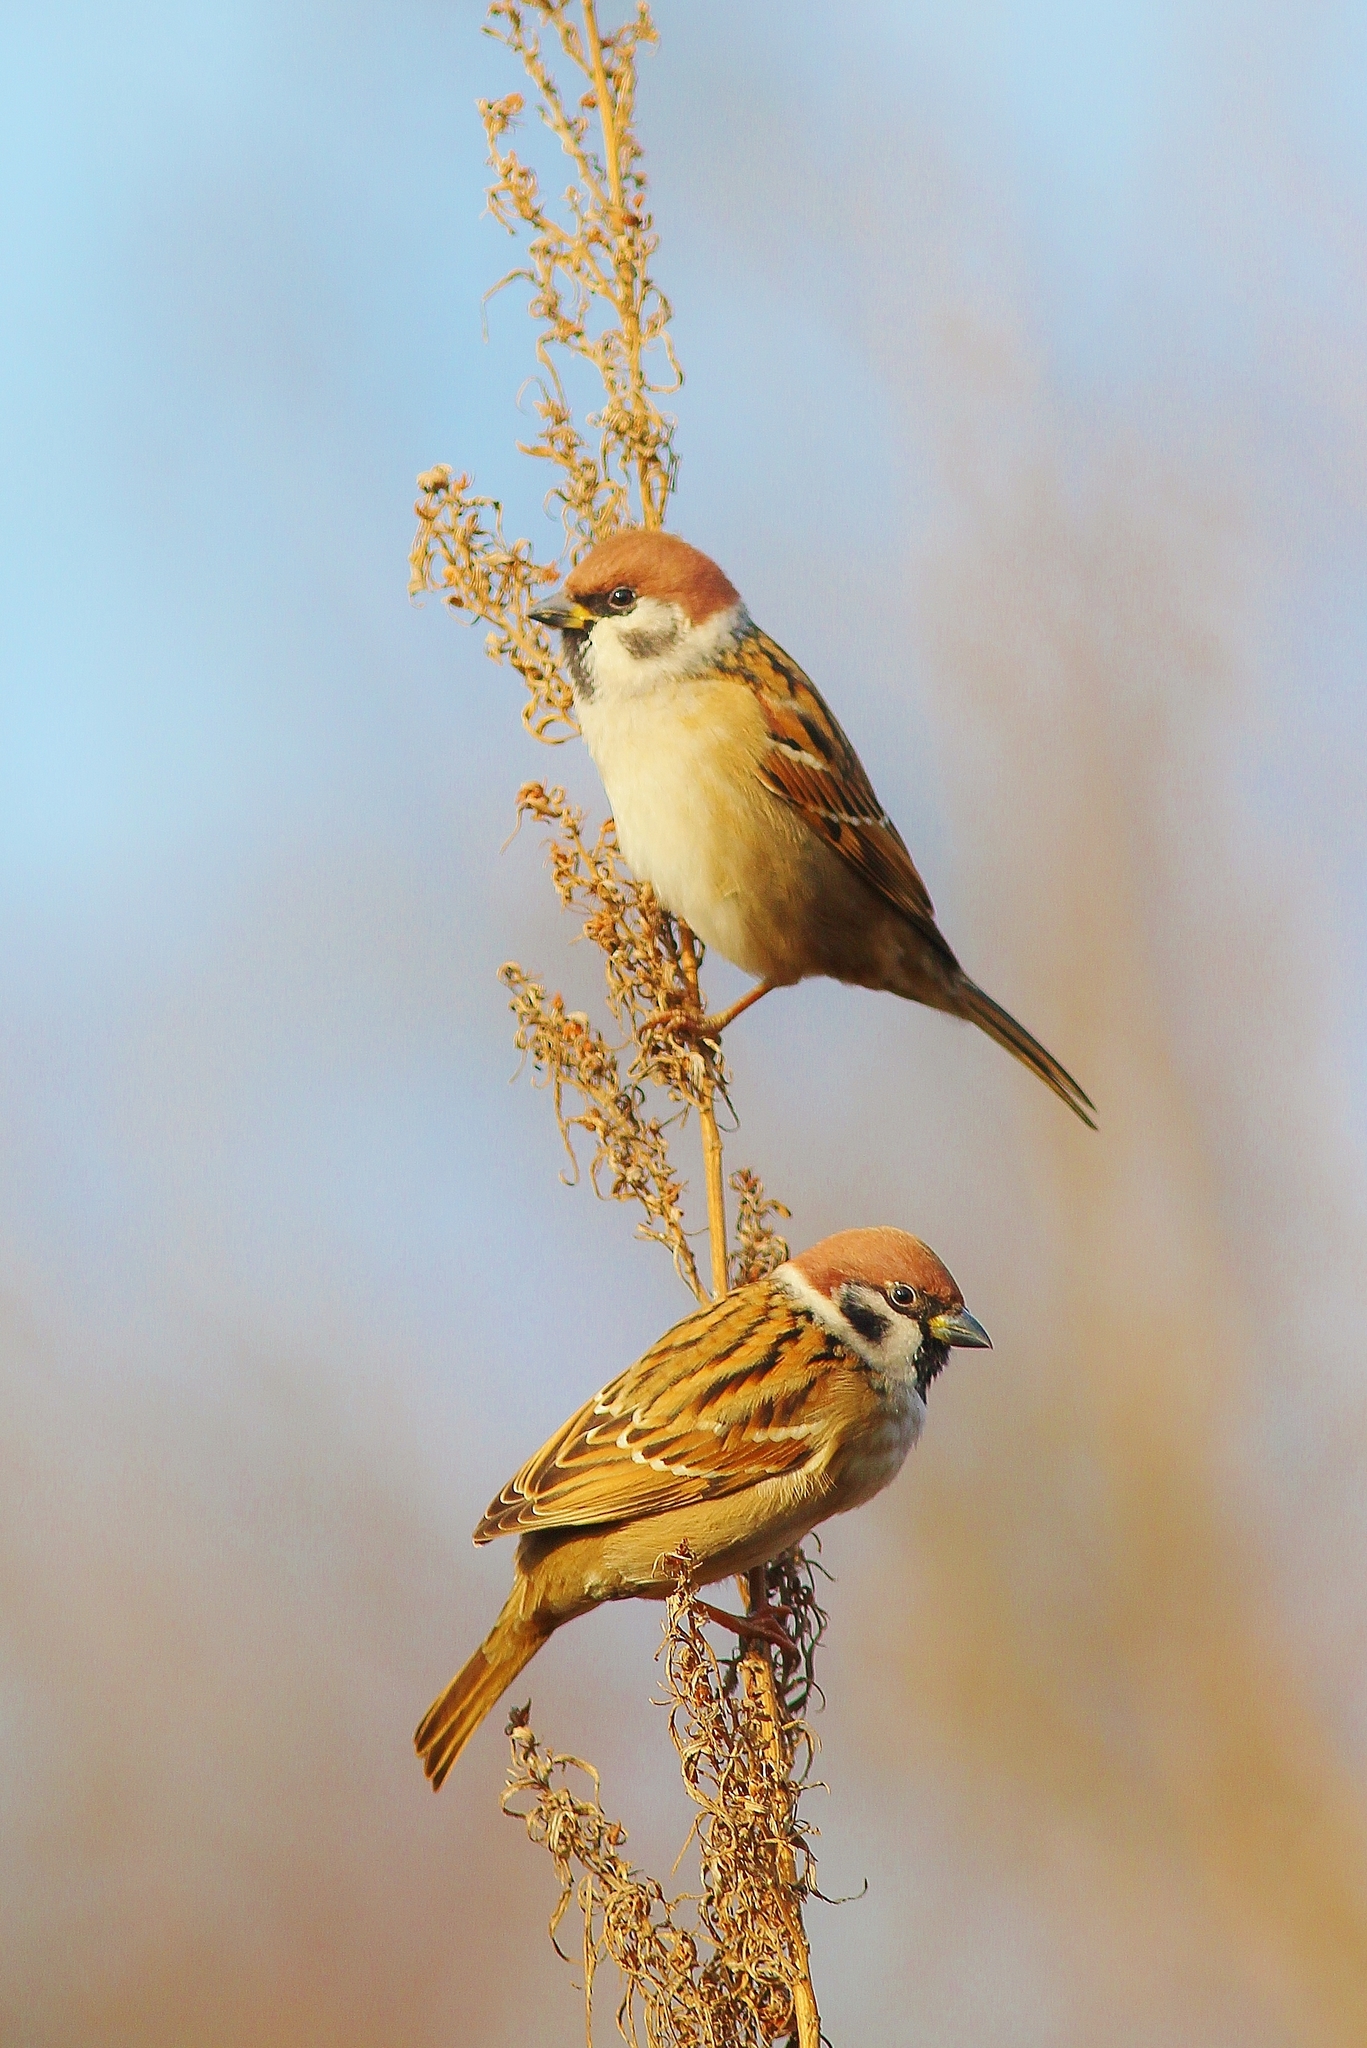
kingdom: Animalia
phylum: Chordata
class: Aves
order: Passeriformes
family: Passeridae
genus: Passer
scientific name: Passer montanus
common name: Eurasian tree sparrow
